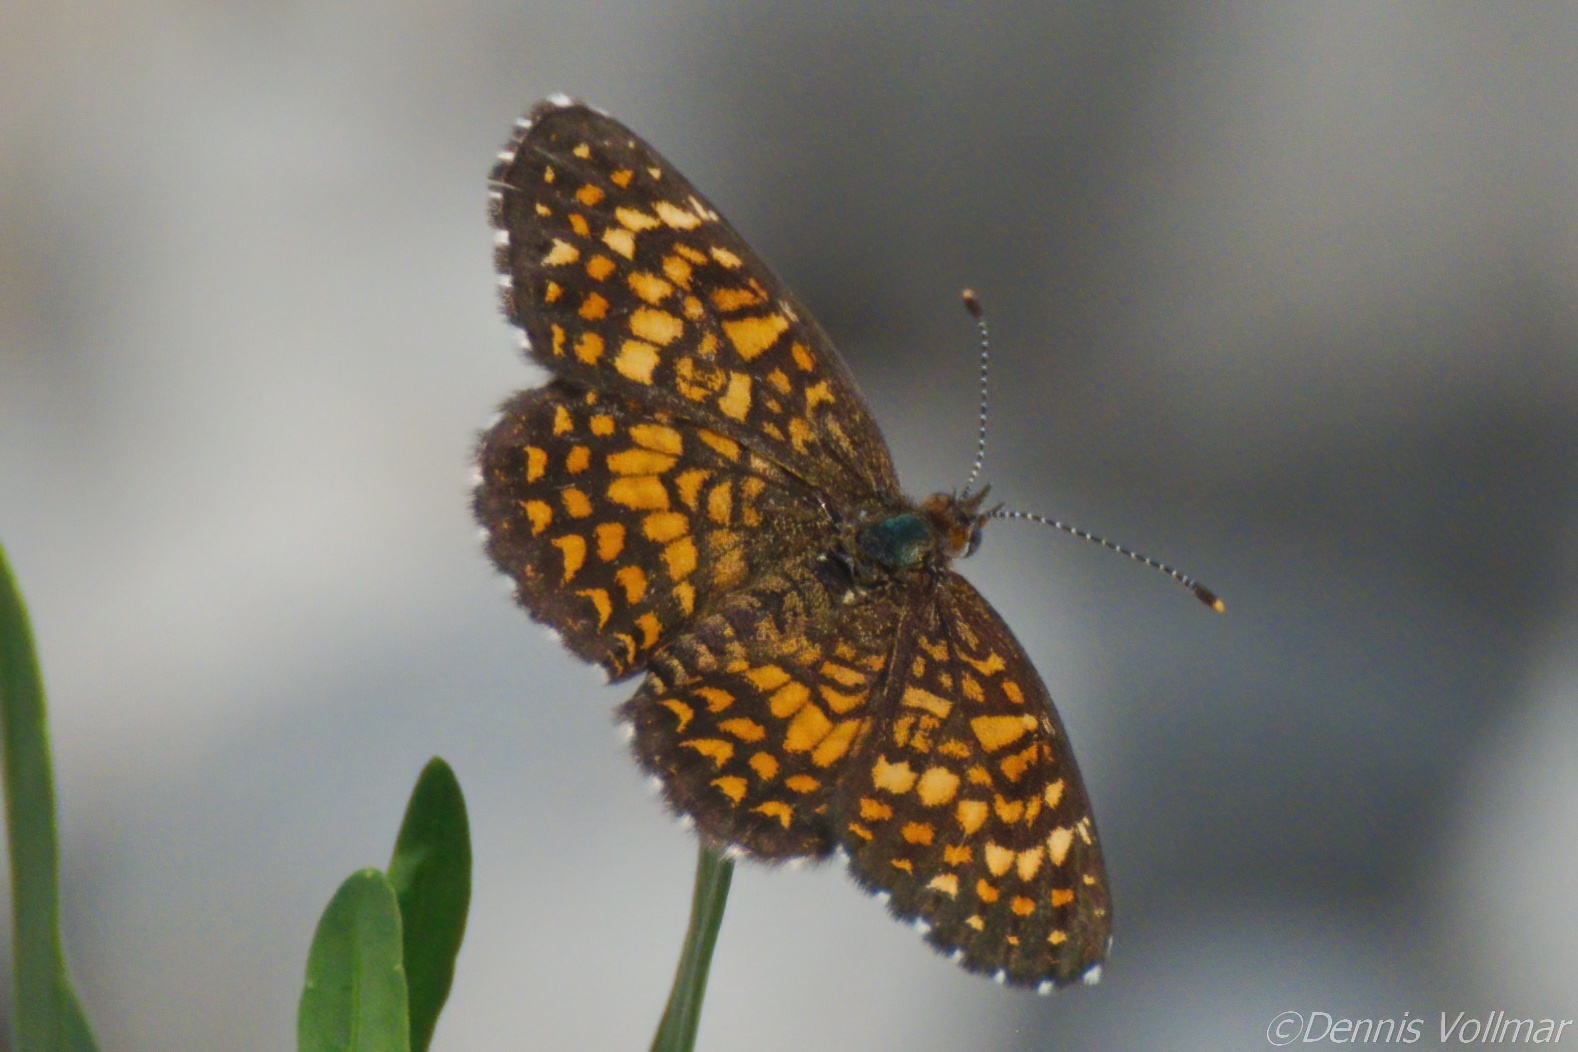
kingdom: Animalia
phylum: Arthropoda
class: Insecta
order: Lepidoptera
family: Nymphalidae
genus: Texola
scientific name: Texola elada
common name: Elada checkerspot
